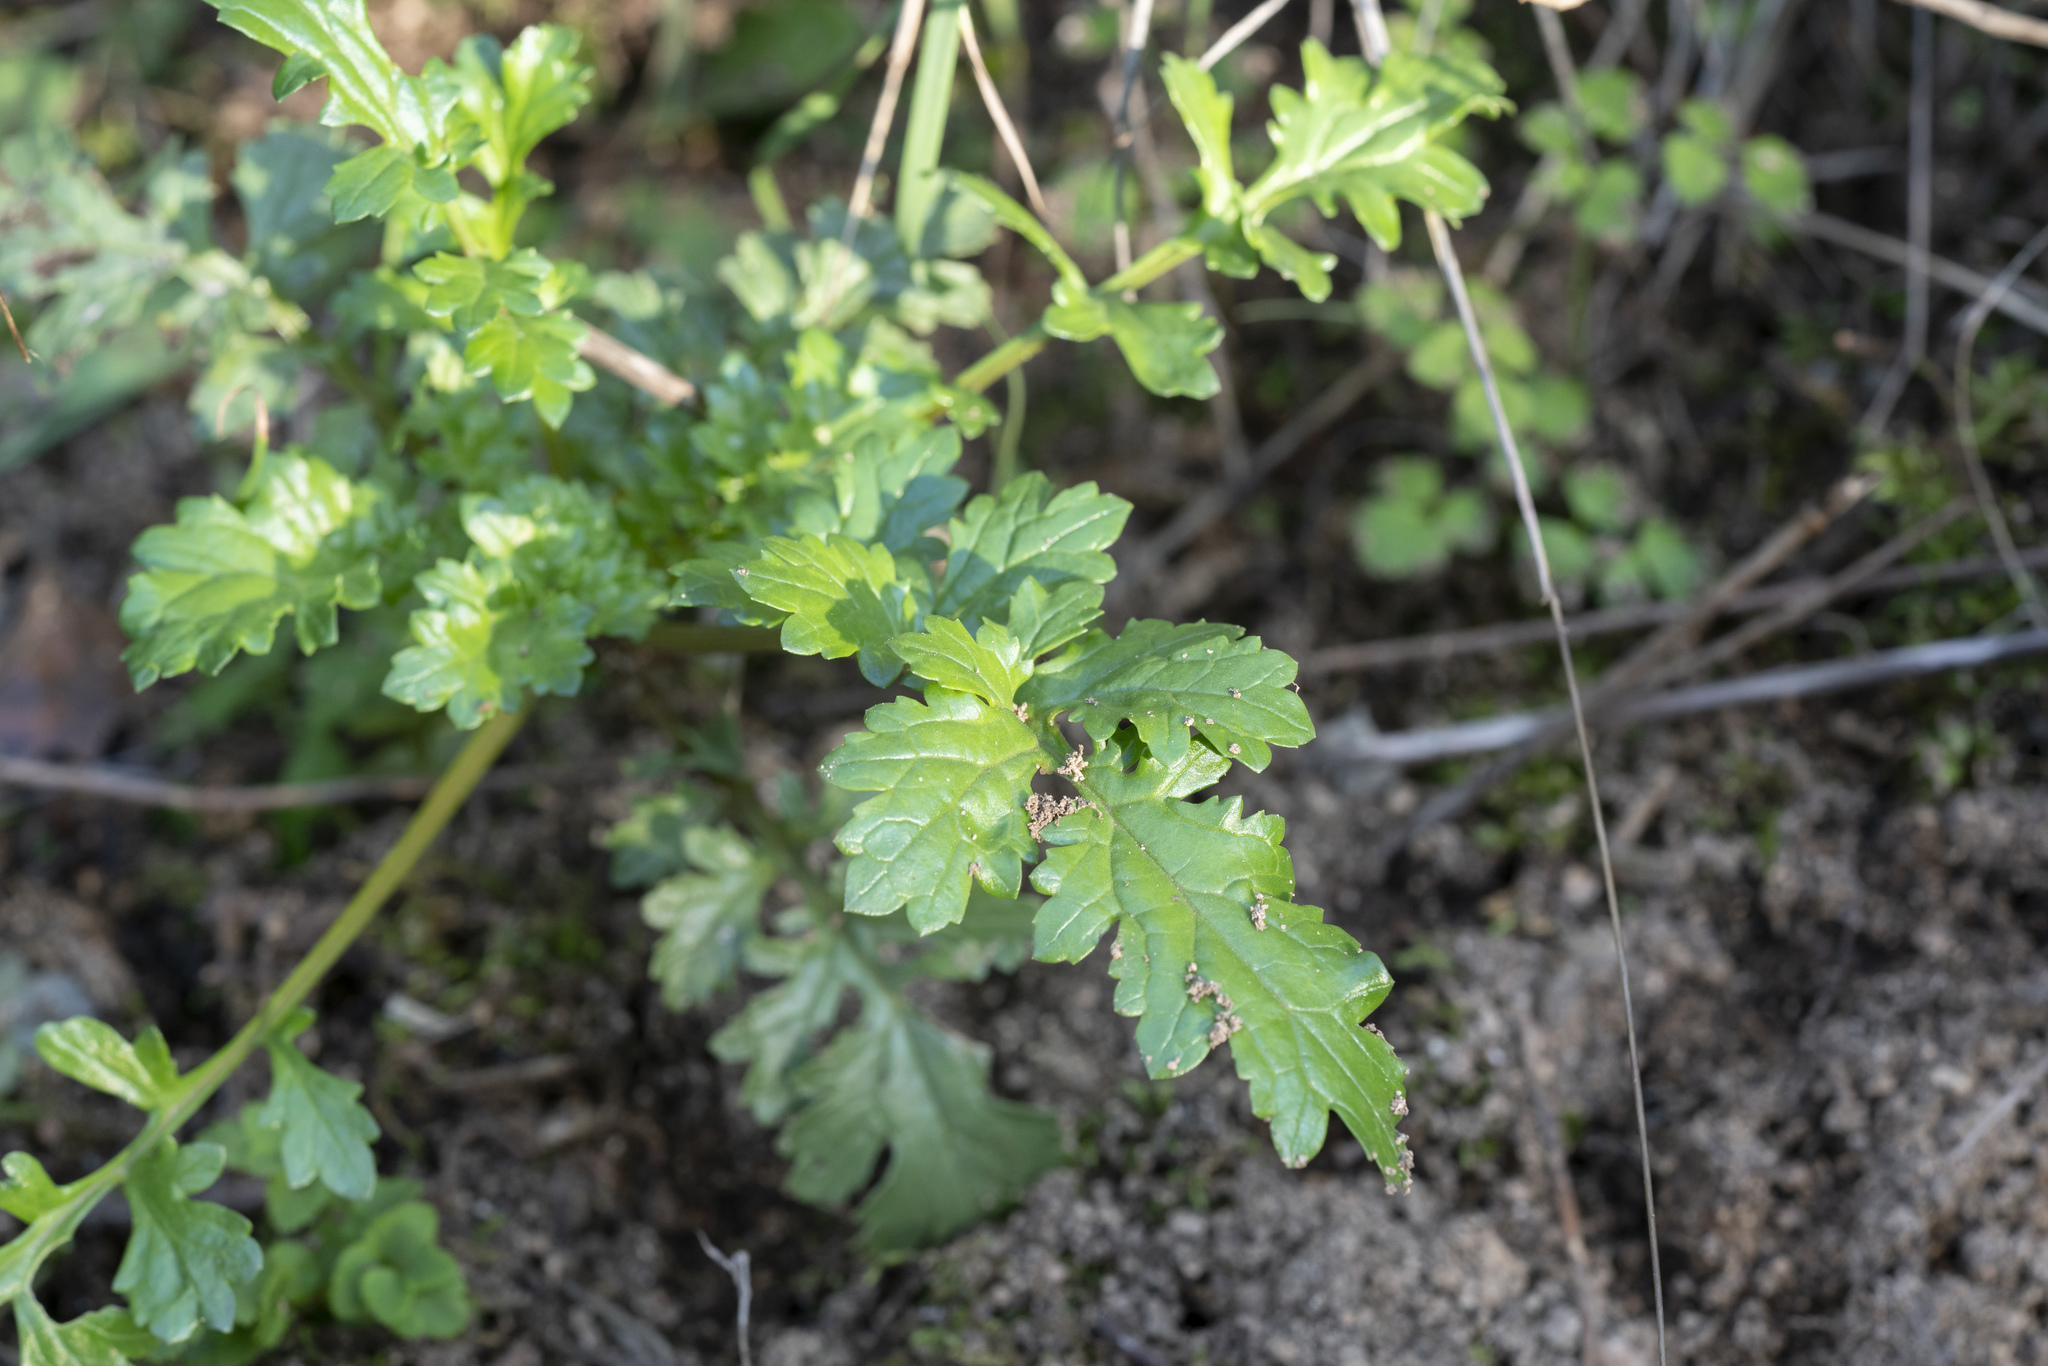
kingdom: Plantae
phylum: Tracheophyta
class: Magnoliopsida
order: Lamiales
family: Scrophulariaceae
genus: Scrophularia
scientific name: Scrophularia lucida
